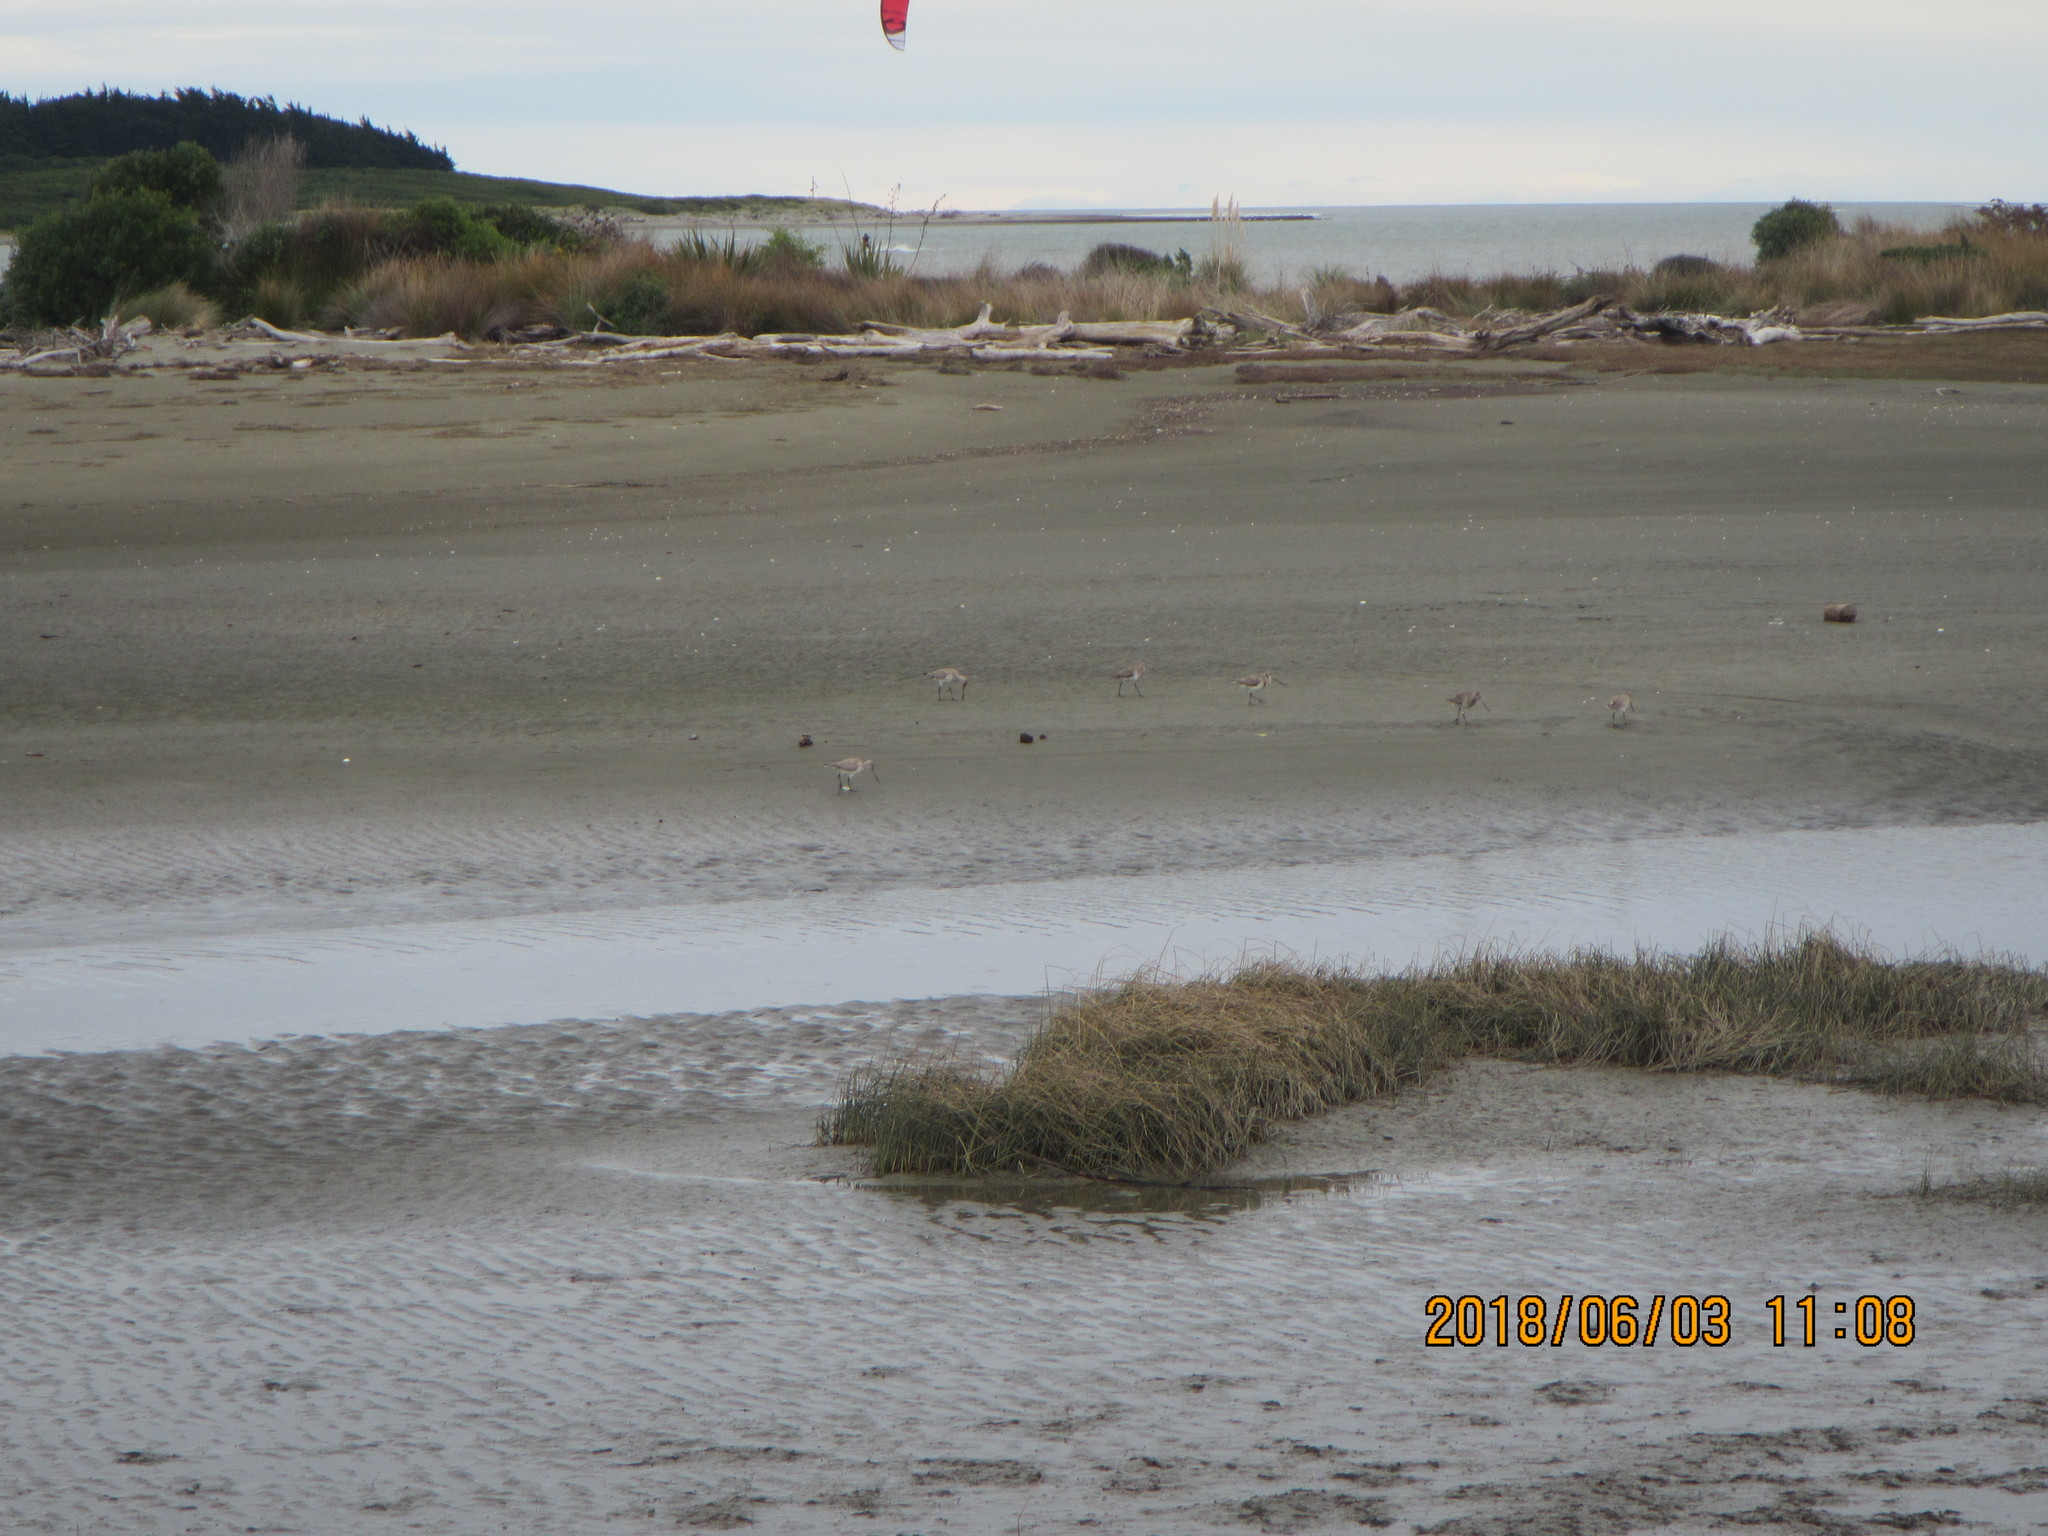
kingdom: Animalia
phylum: Chordata
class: Aves
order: Charadriiformes
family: Scolopacidae
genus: Limosa
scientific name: Limosa lapponica
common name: Bar-tailed godwit
